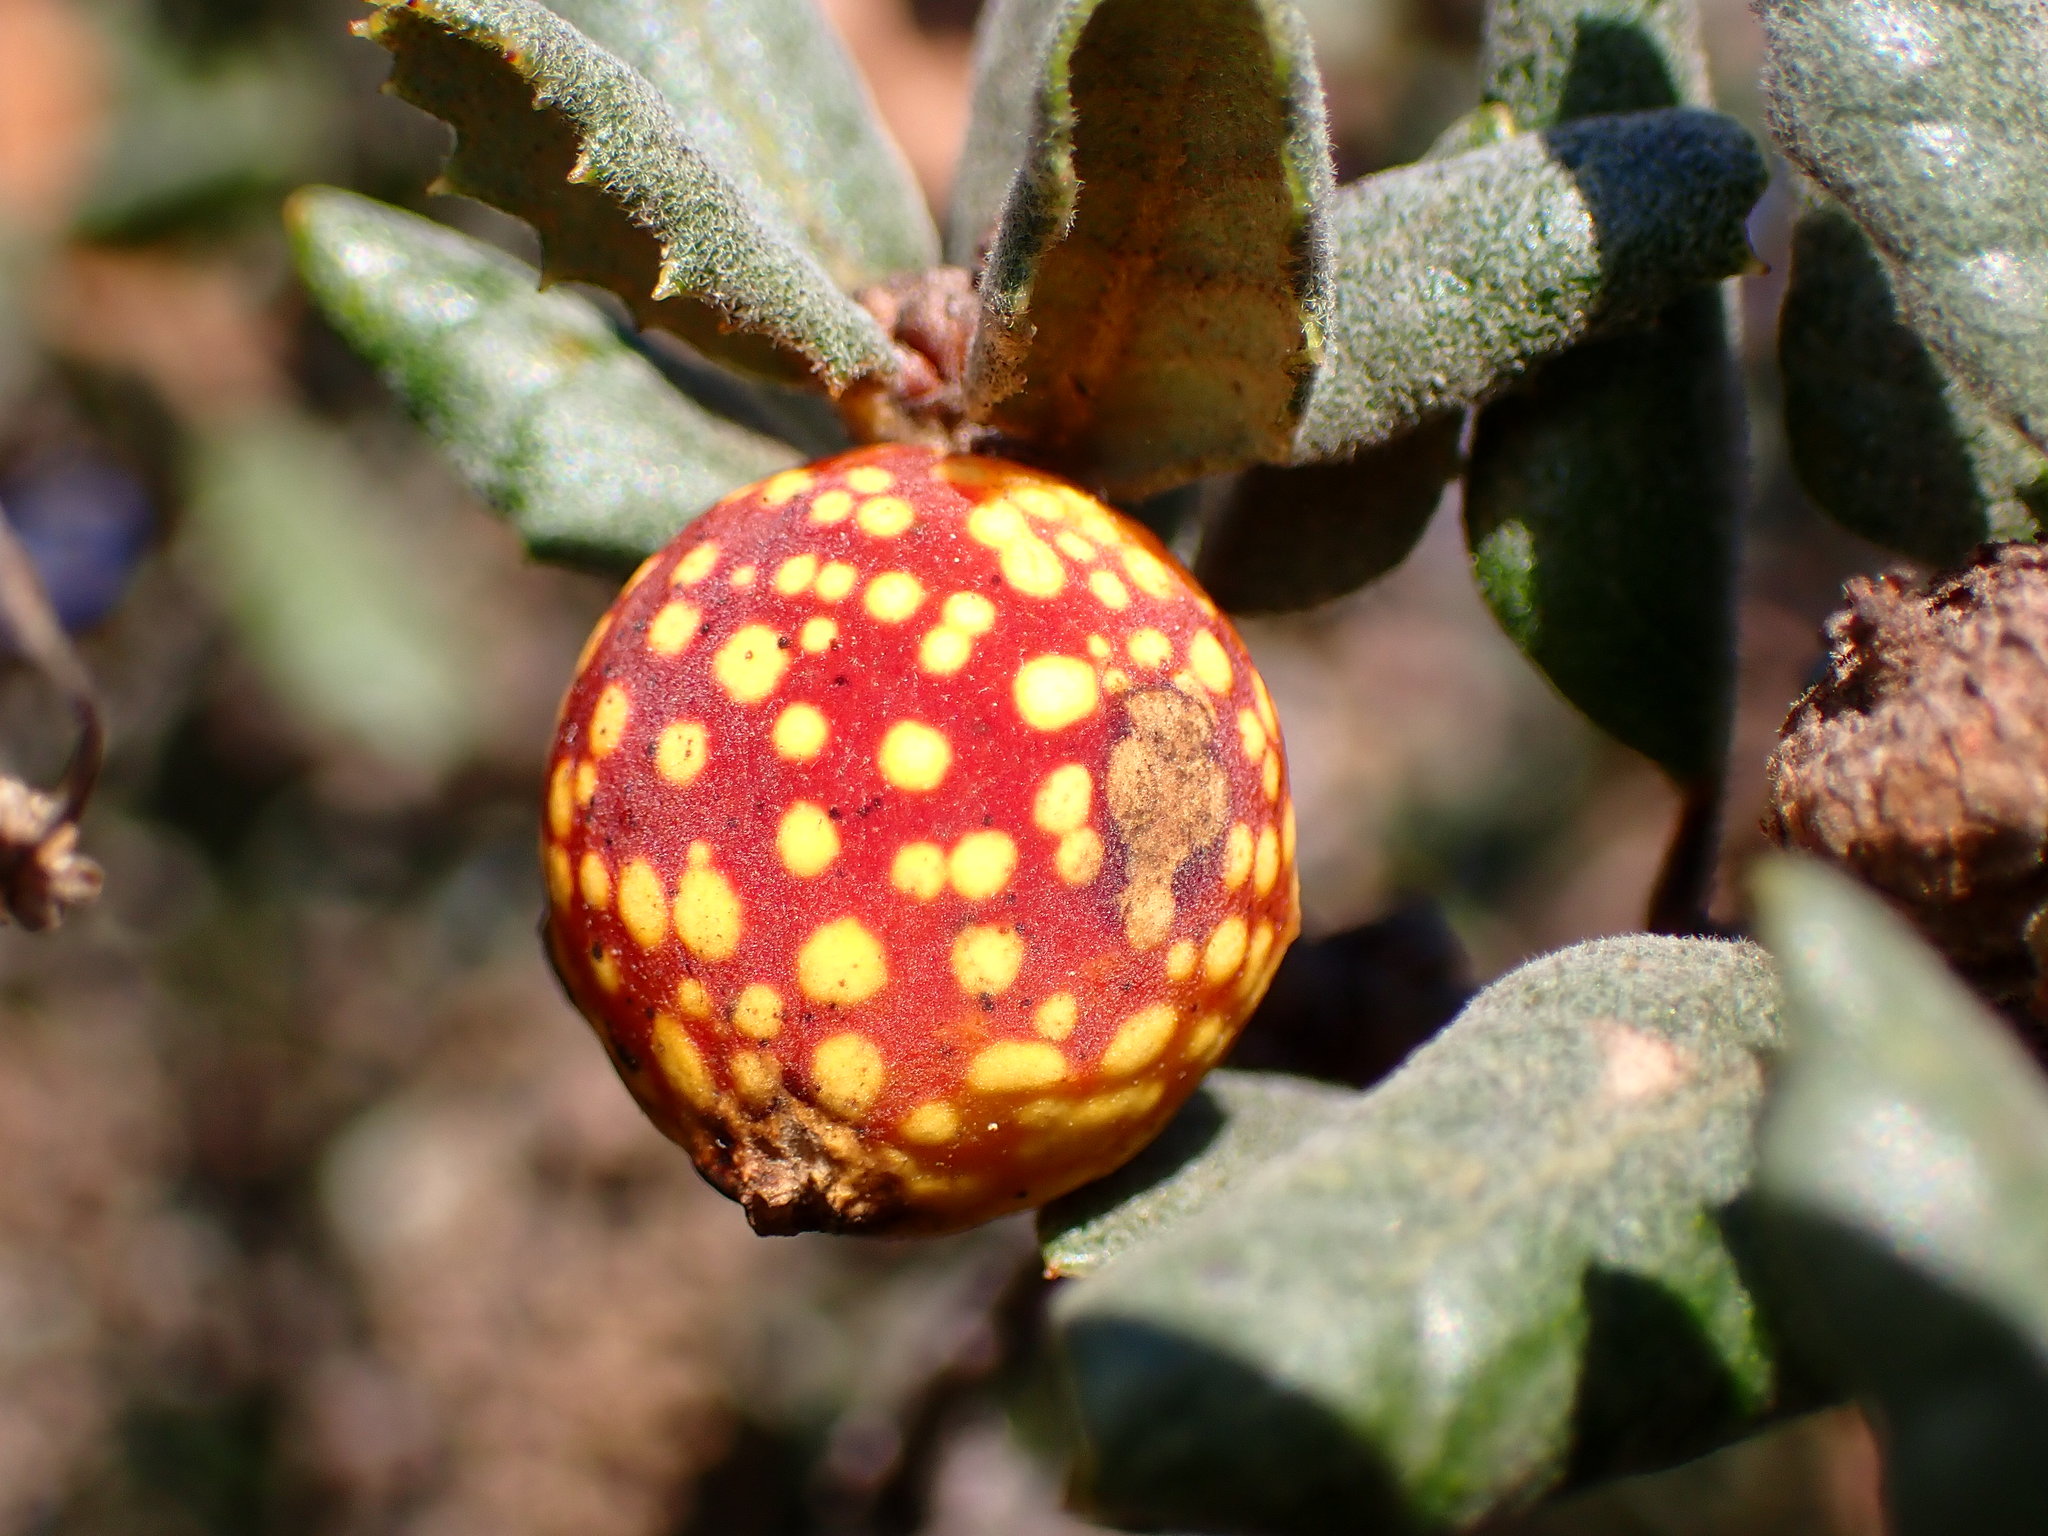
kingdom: Animalia
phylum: Arthropoda
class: Insecta
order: Hymenoptera
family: Cynipidae
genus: Burnettweldia
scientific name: Burnettweldia
